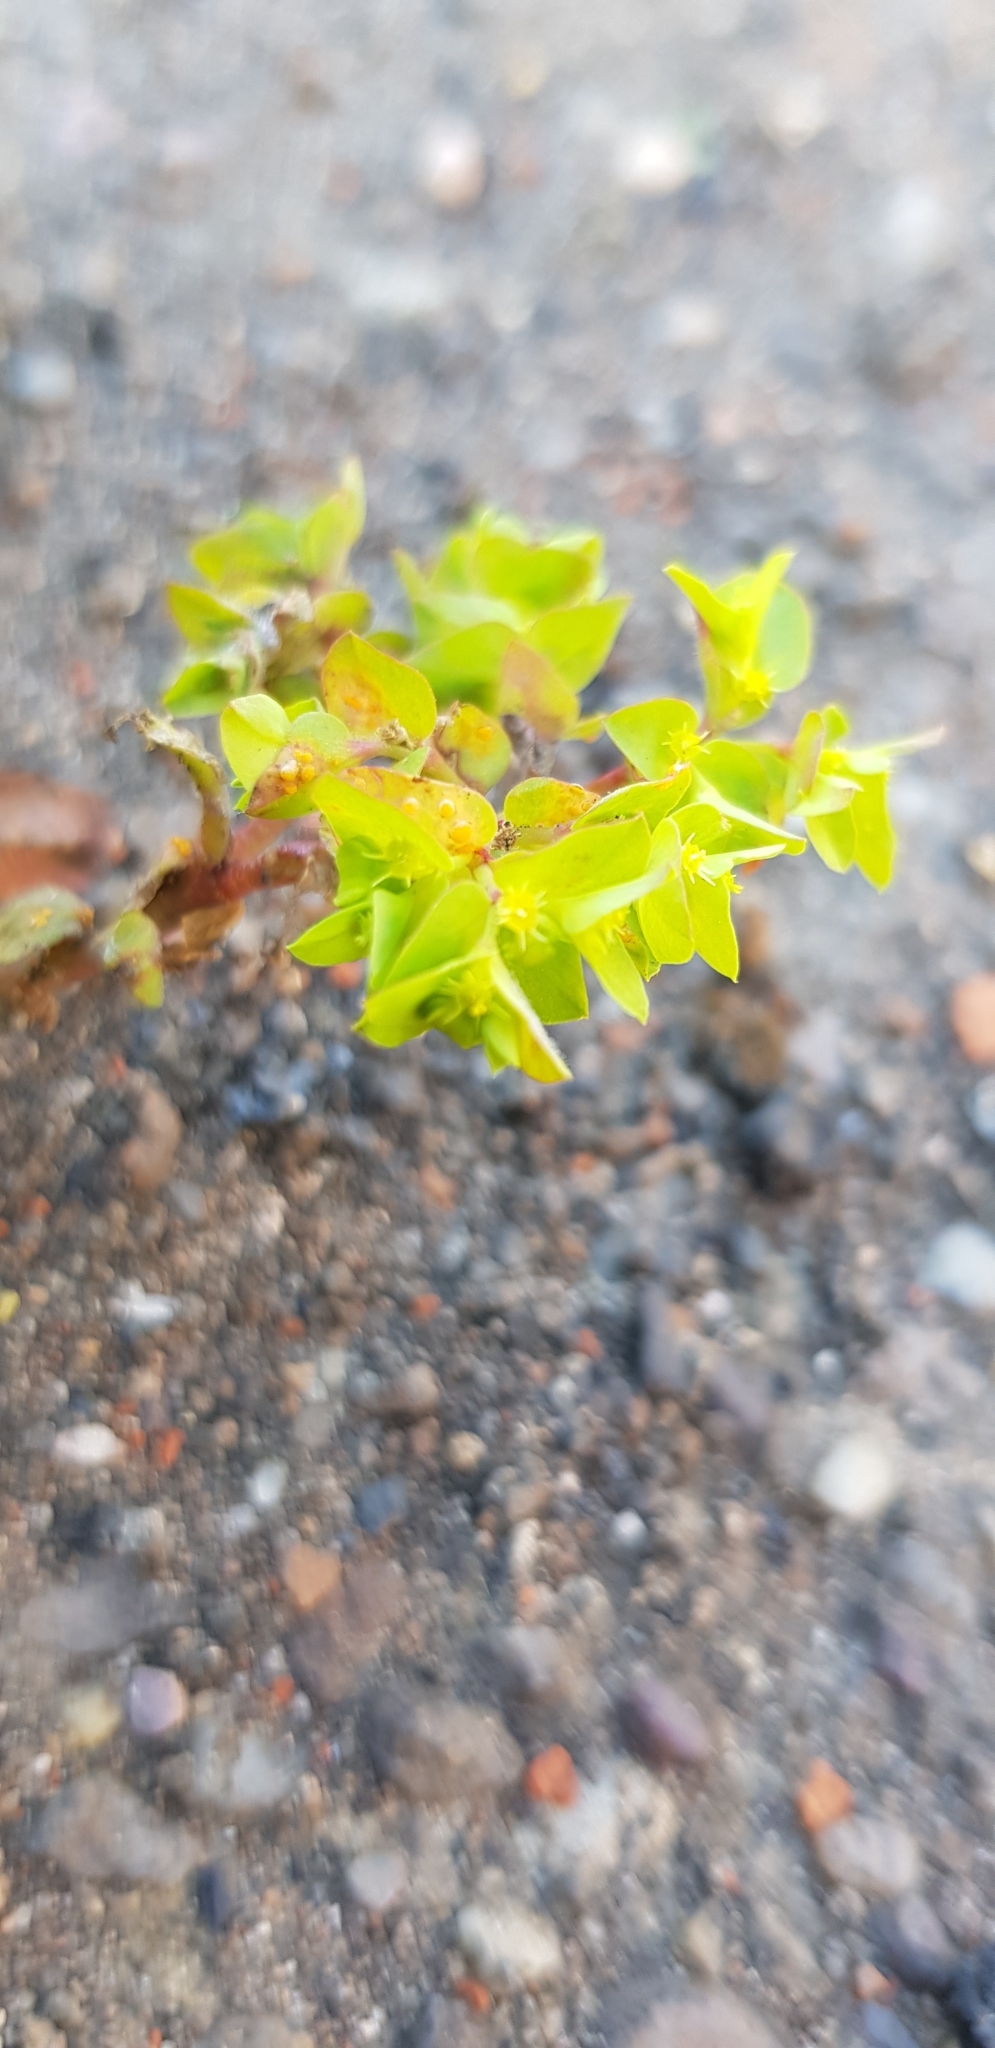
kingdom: Plantae
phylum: Tracheophyta
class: Magnoliopsida
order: Malpighiales
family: Euphorbiaceae
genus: Euphorbia
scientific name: Euphorbia peplus
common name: Petty spurge
